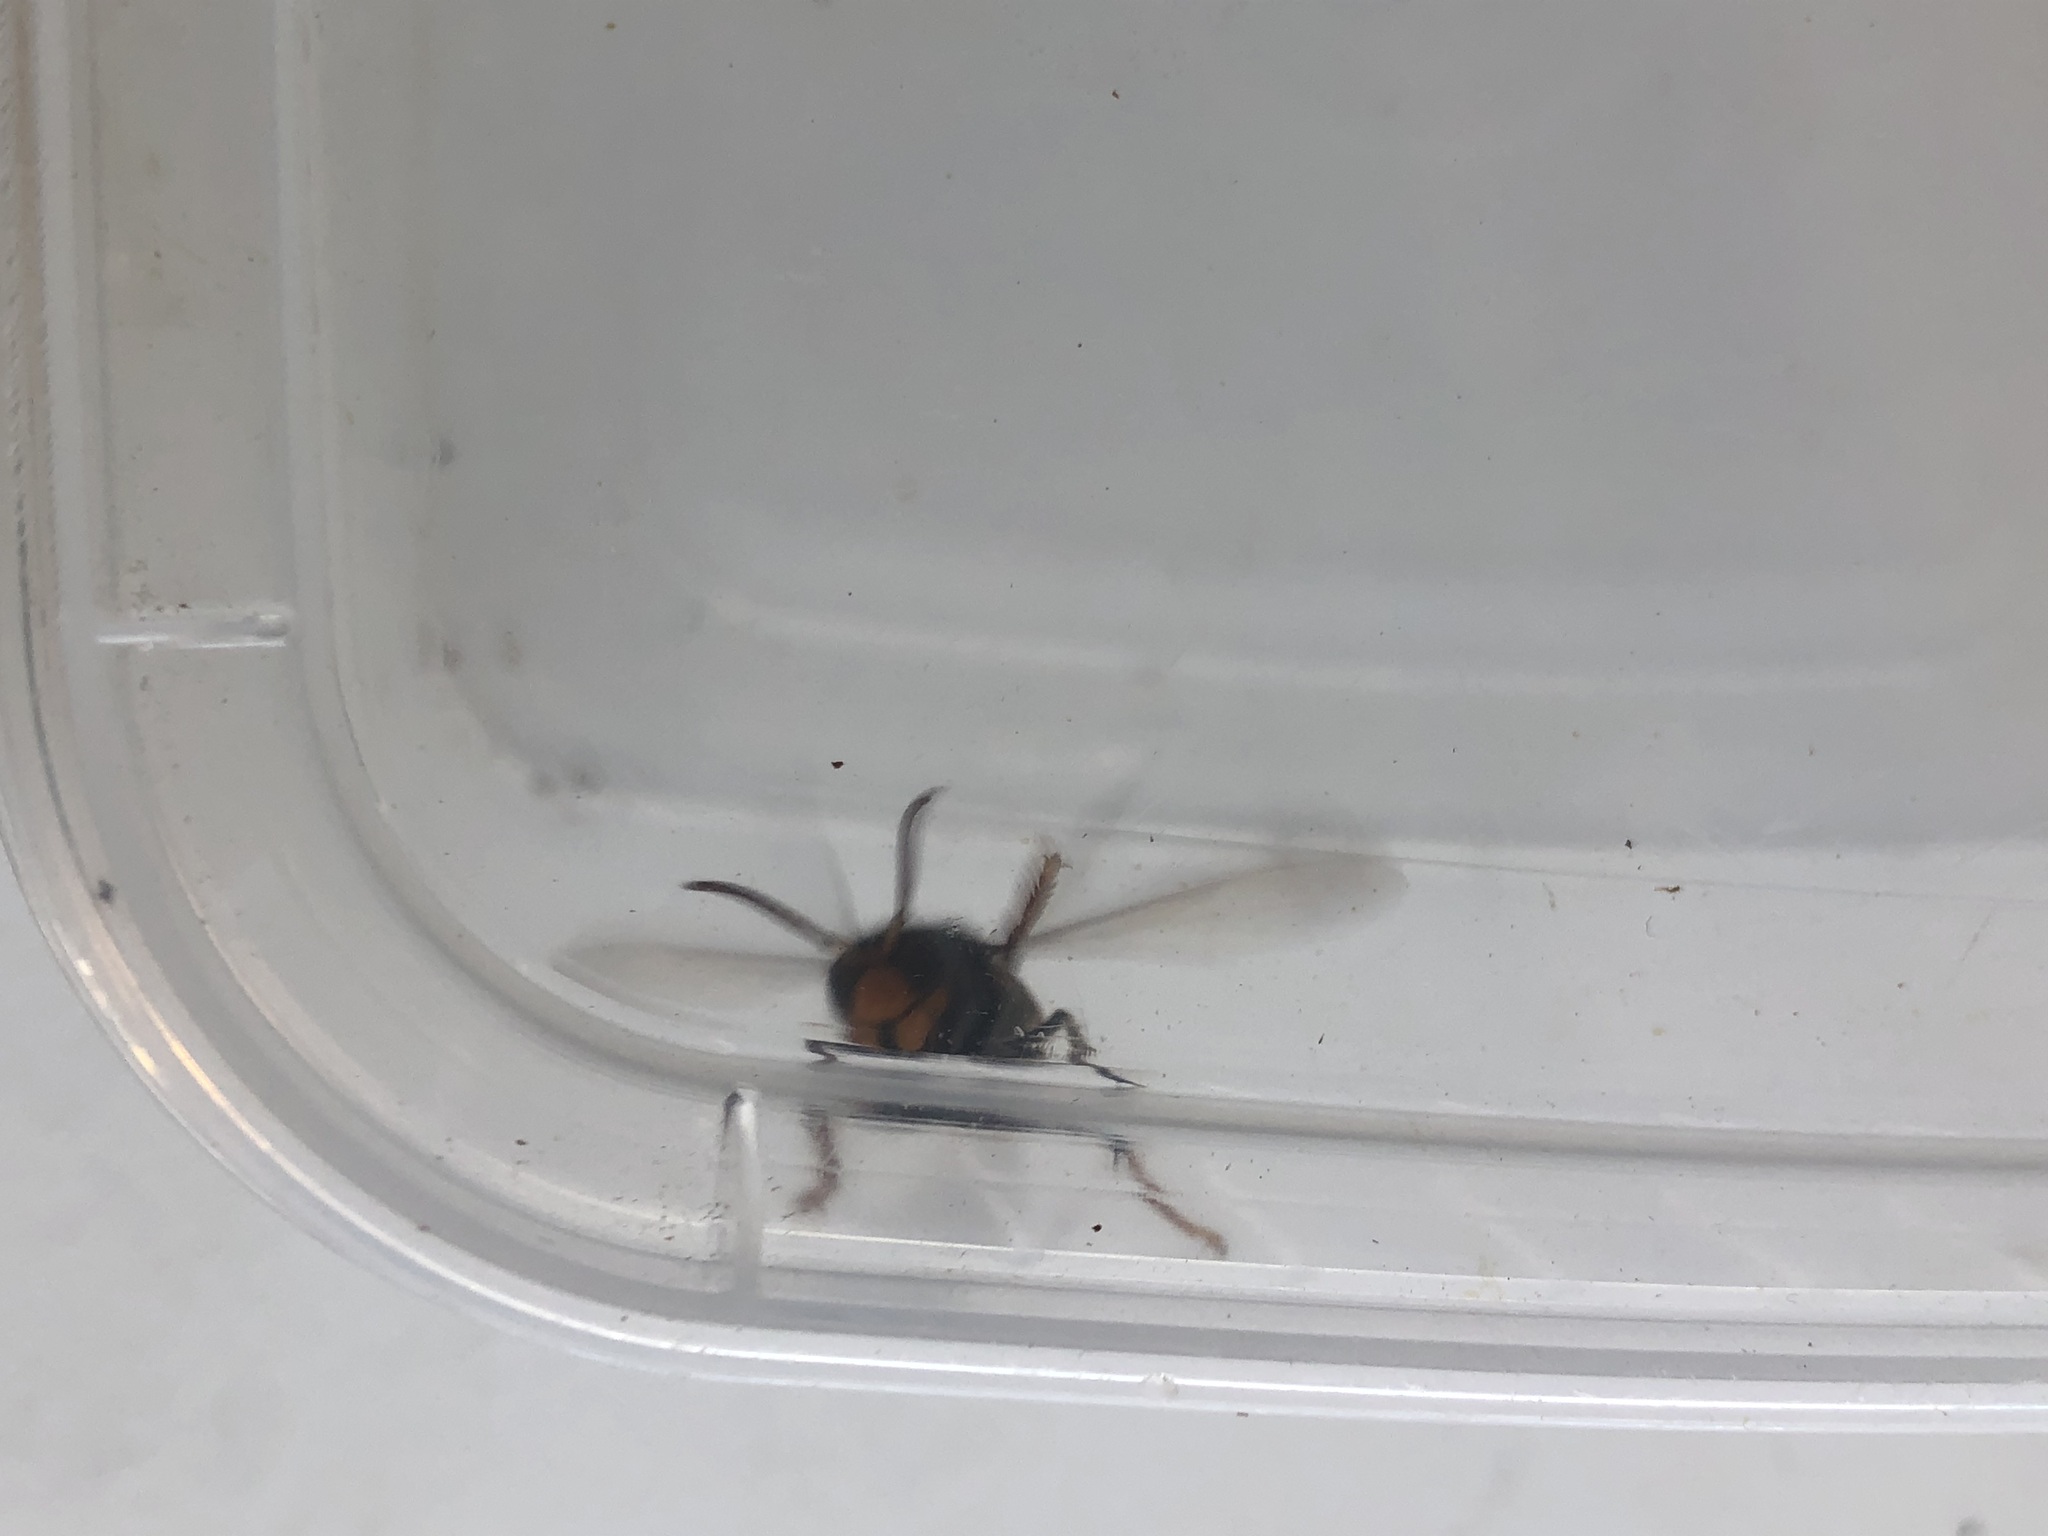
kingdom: Animalia
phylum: Arthropoda
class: Insecta
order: Hymenoptera
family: Vespidae
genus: Vespa
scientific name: Vespa velutina
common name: Asian hornet
